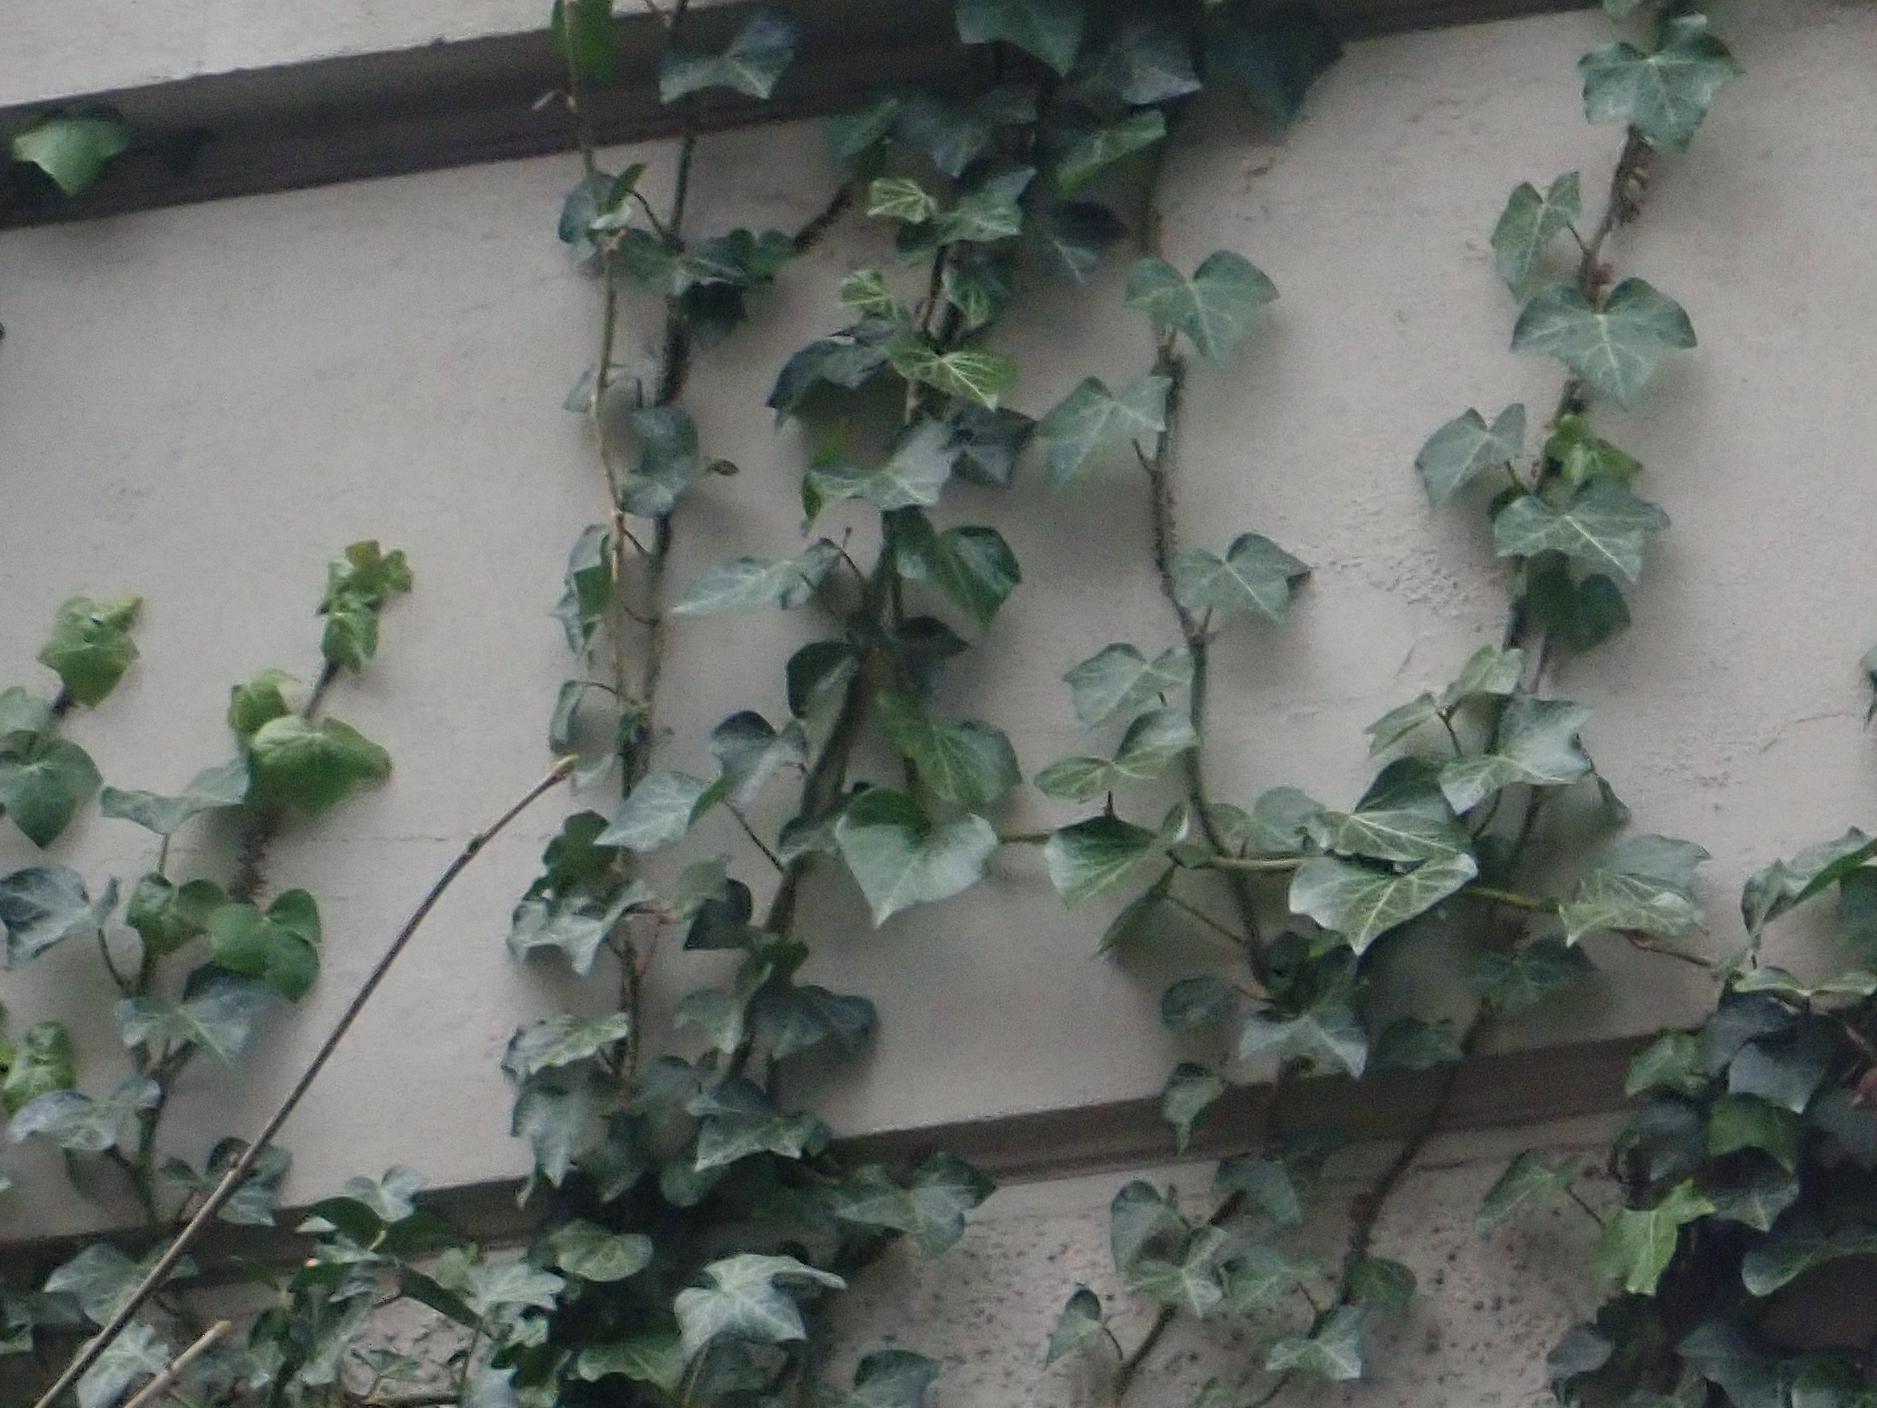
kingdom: Plantae
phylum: Tracheophyta
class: Magnoliopsida
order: Apiales
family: Araliaceae
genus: Hedera
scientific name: Hedera helix
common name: Ivy
